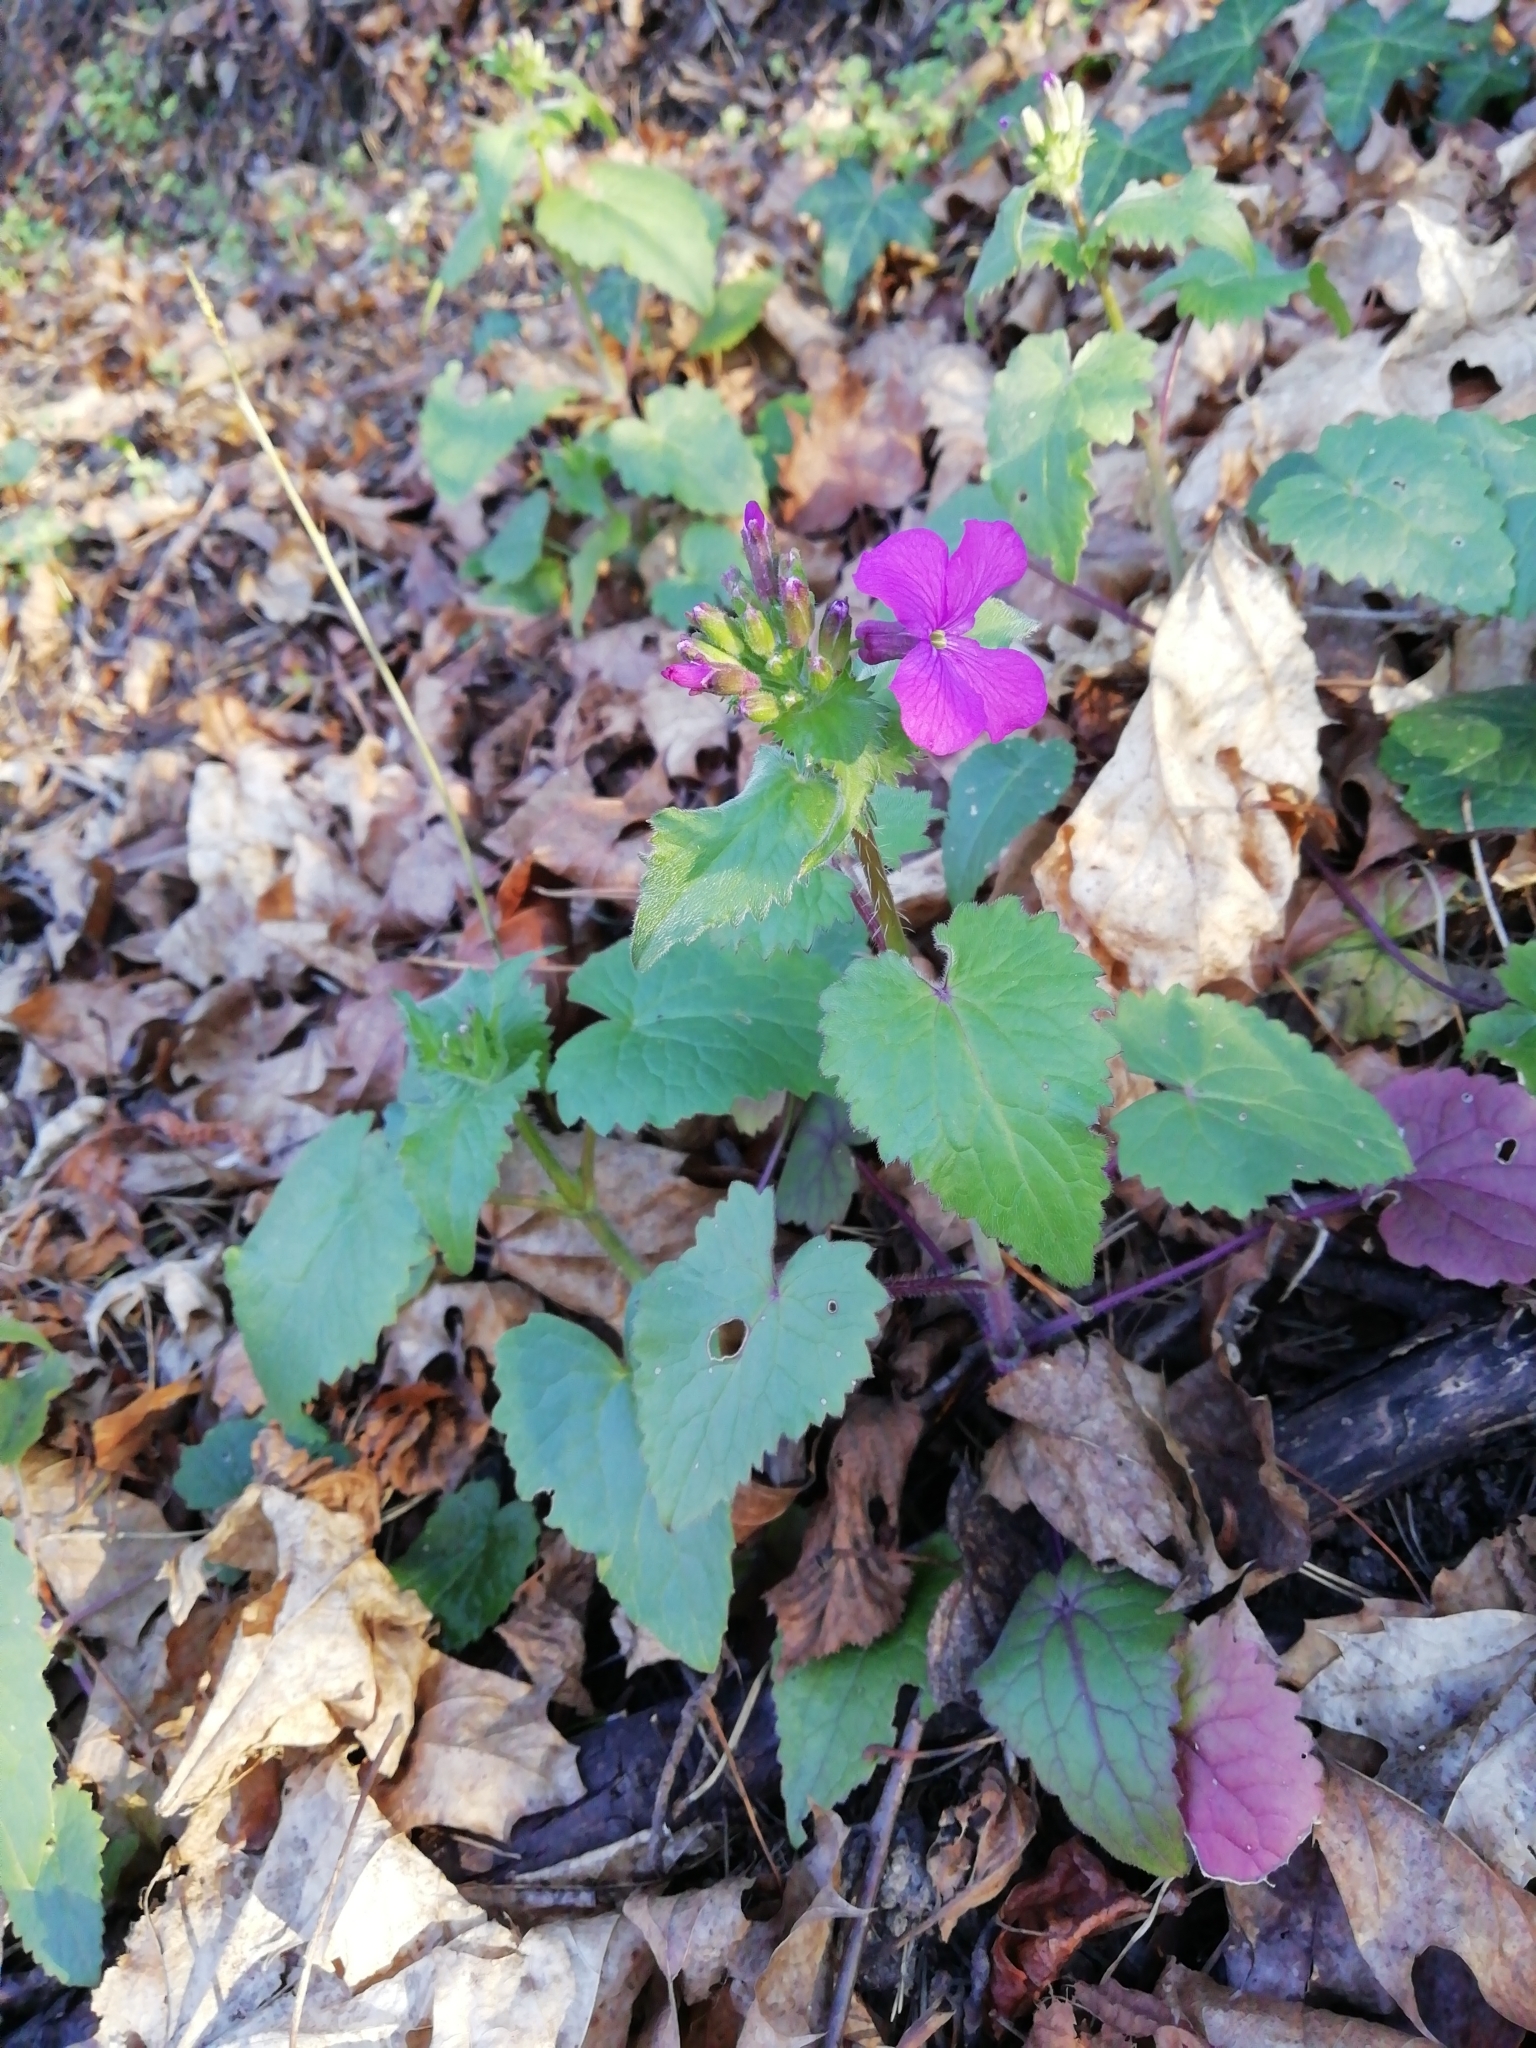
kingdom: Plantae
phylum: Tracheophyta
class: Magnoliopsida
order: Brassicales
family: Brassicaceae
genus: Lunaria
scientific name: Lunaria annua
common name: Honesty
